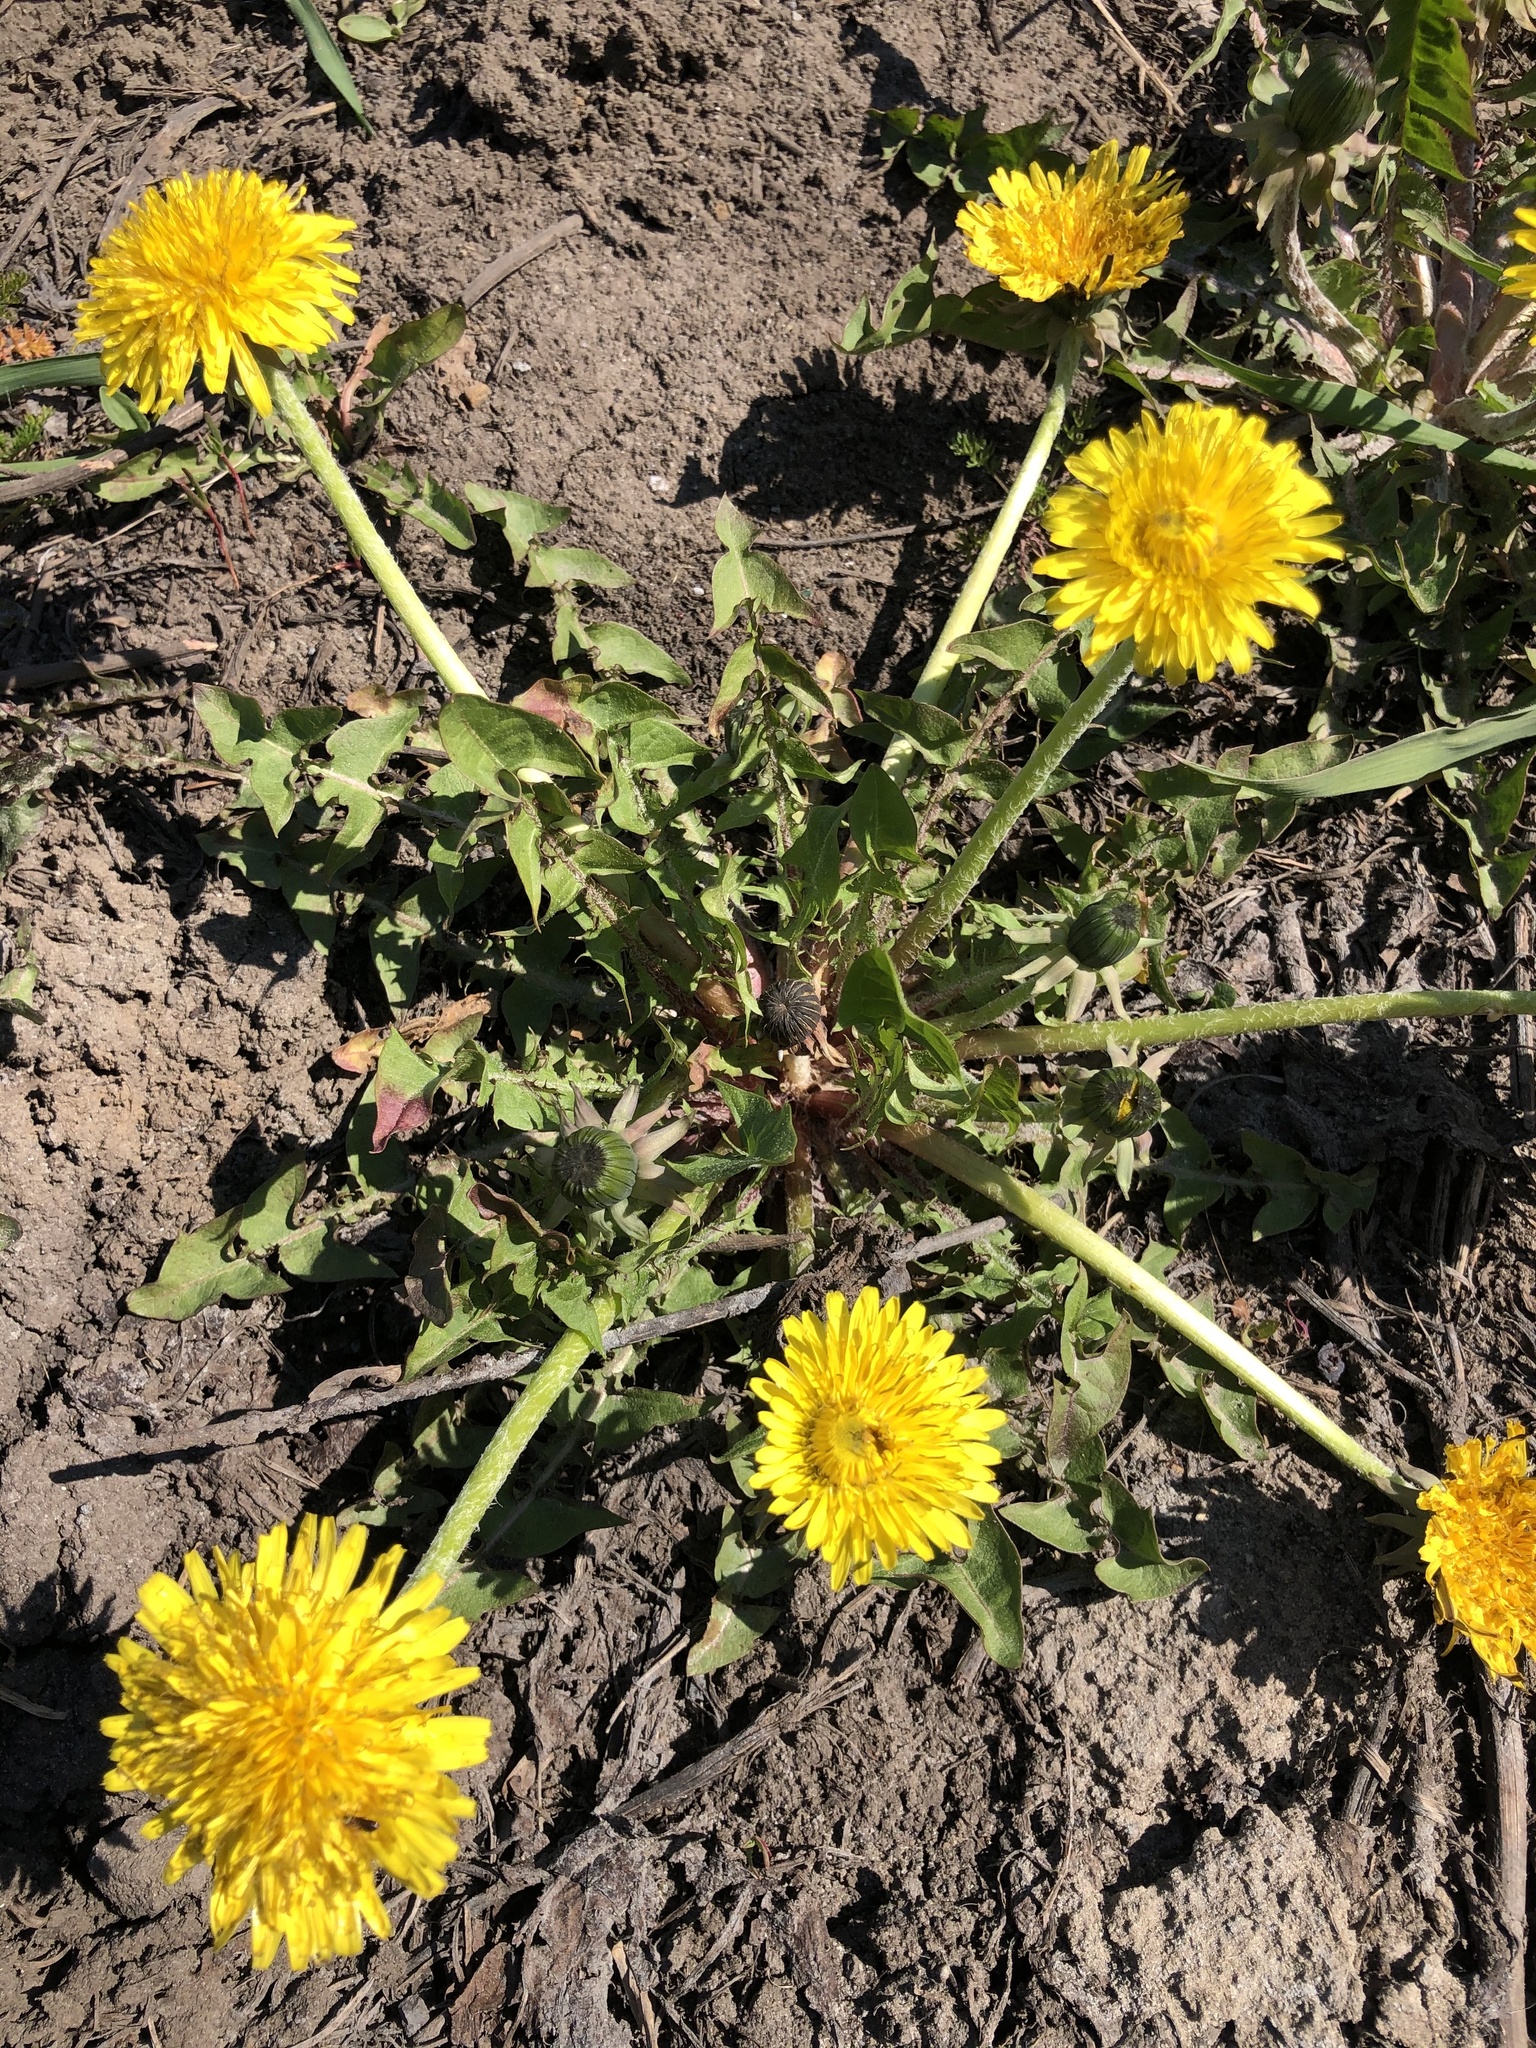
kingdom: Plantae
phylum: Tracheophyta
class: Magnoliopsida
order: Asterales
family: Asteraceae
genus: Taraxacum
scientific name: Taraxacum officinale
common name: Common dandelion
